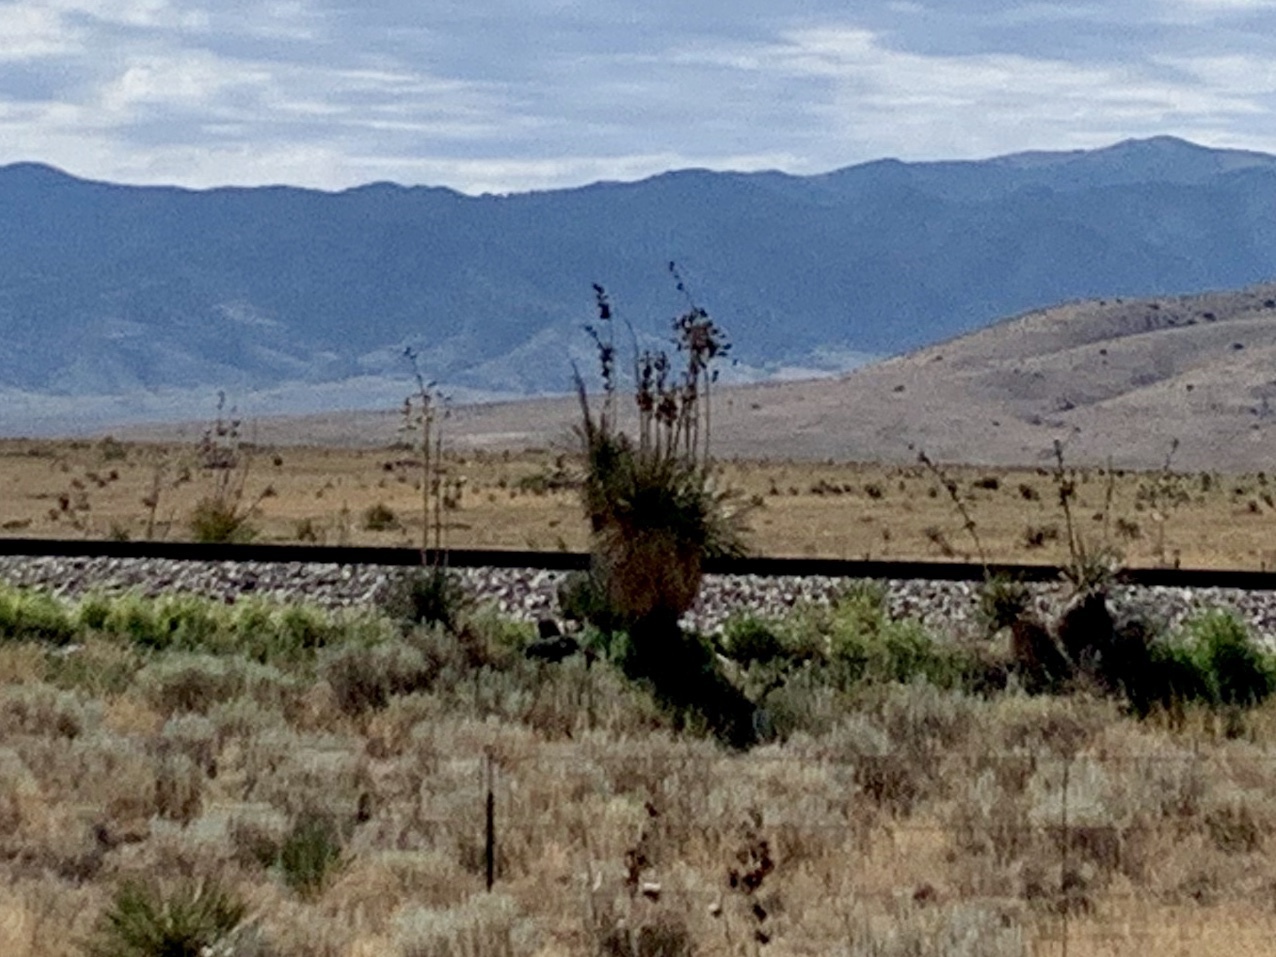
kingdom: Plantae
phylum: Tracheophyta
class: Liliopsida
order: Asparagales
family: Asparagaceae
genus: Yucca
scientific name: Yucca elata
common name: Palmella
